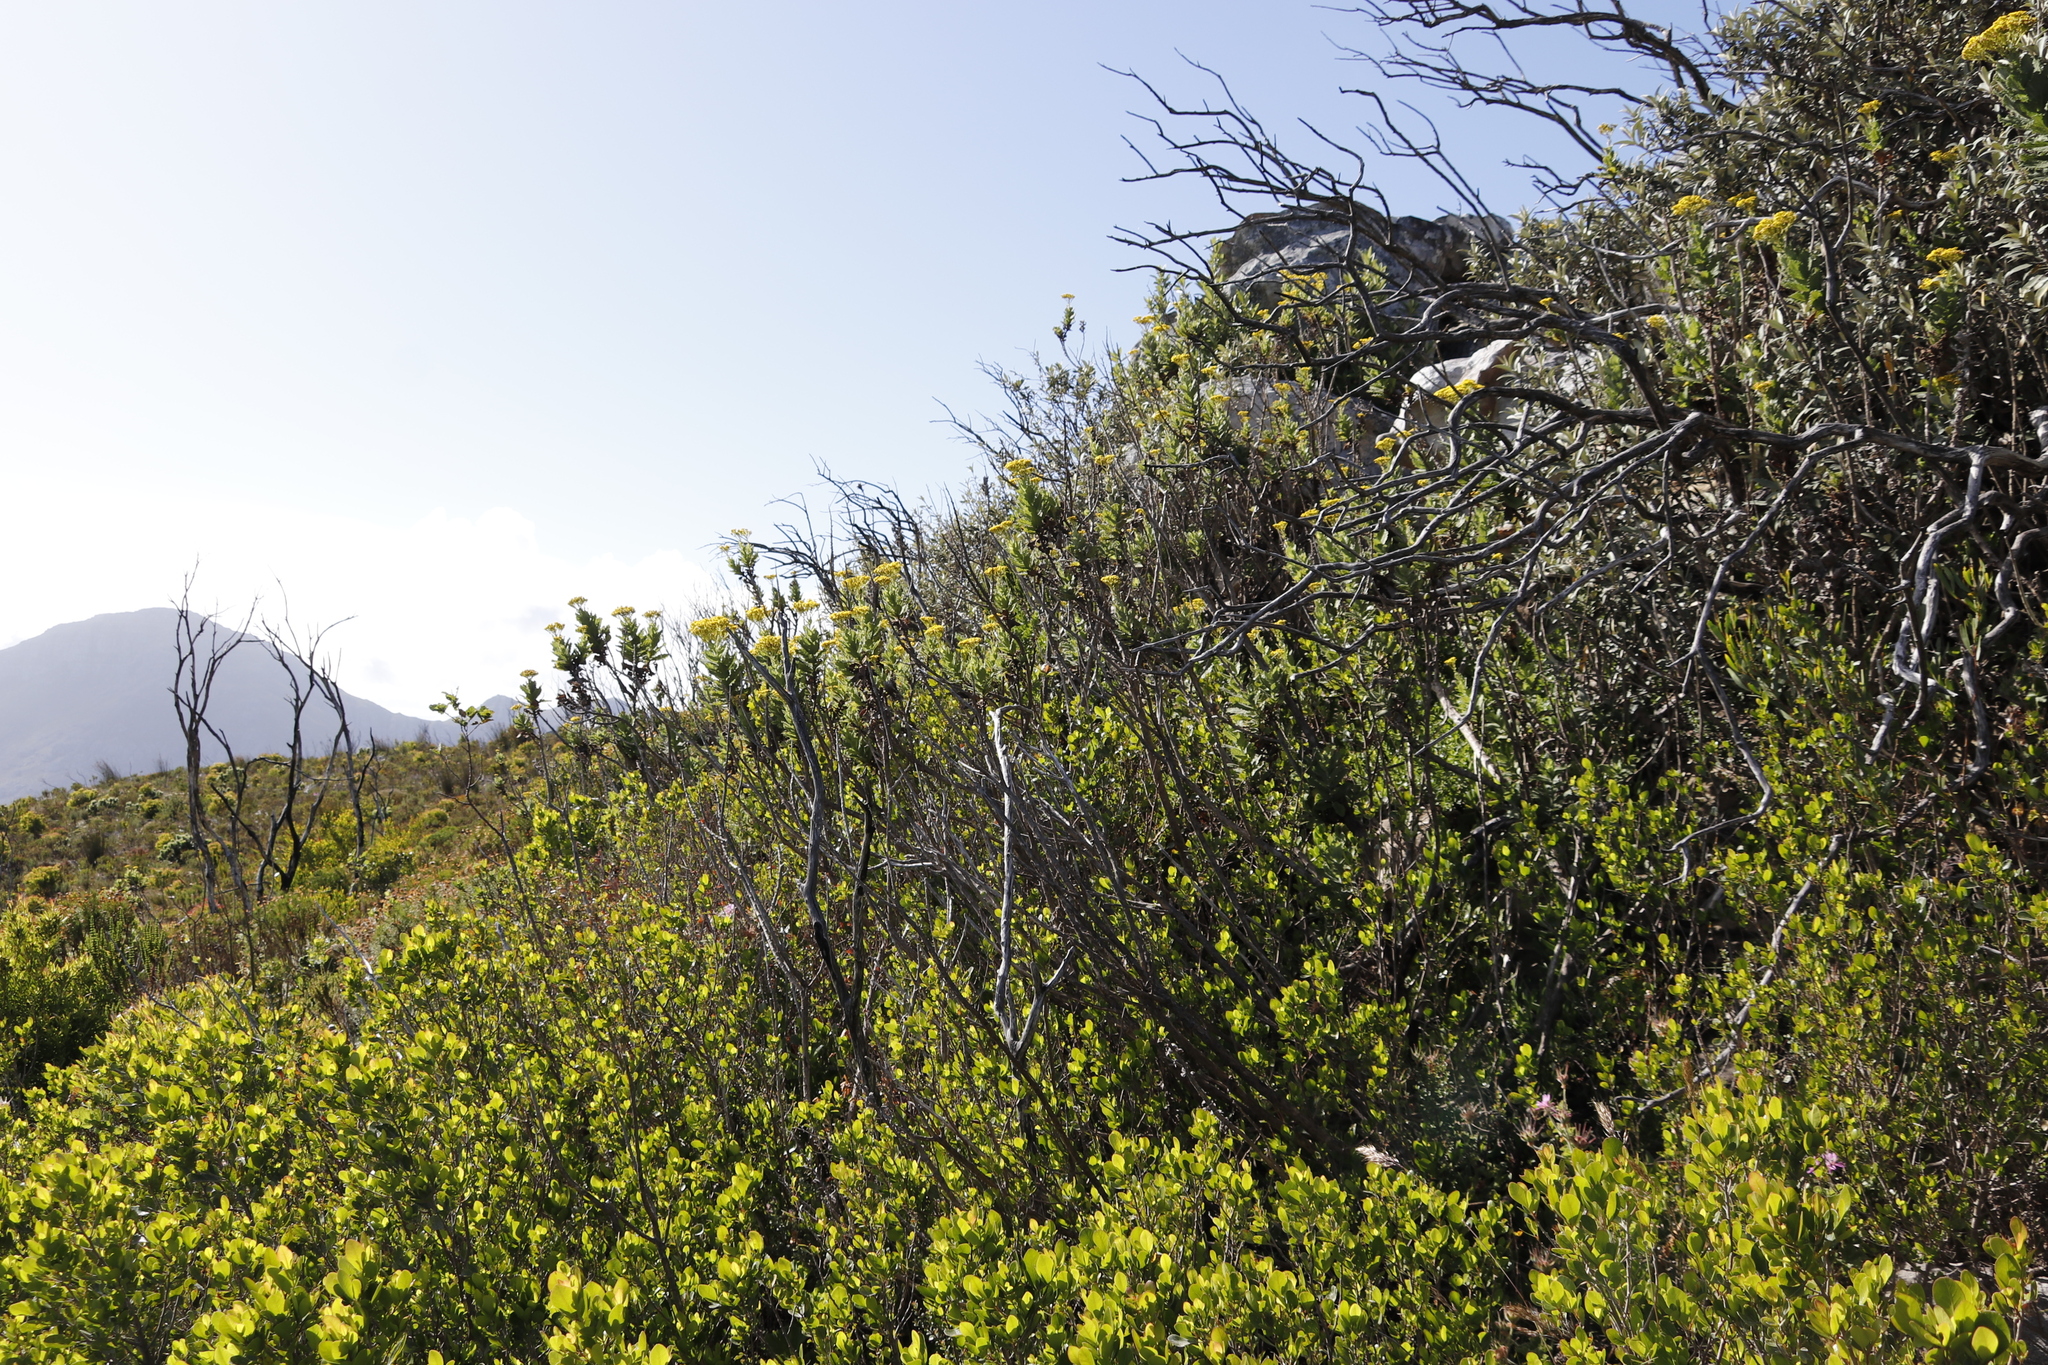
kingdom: Plantae
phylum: Tracheophyta
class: Magnoliopsida
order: Asterales
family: Asteraceae
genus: Senecio
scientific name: Senecio rigidus
